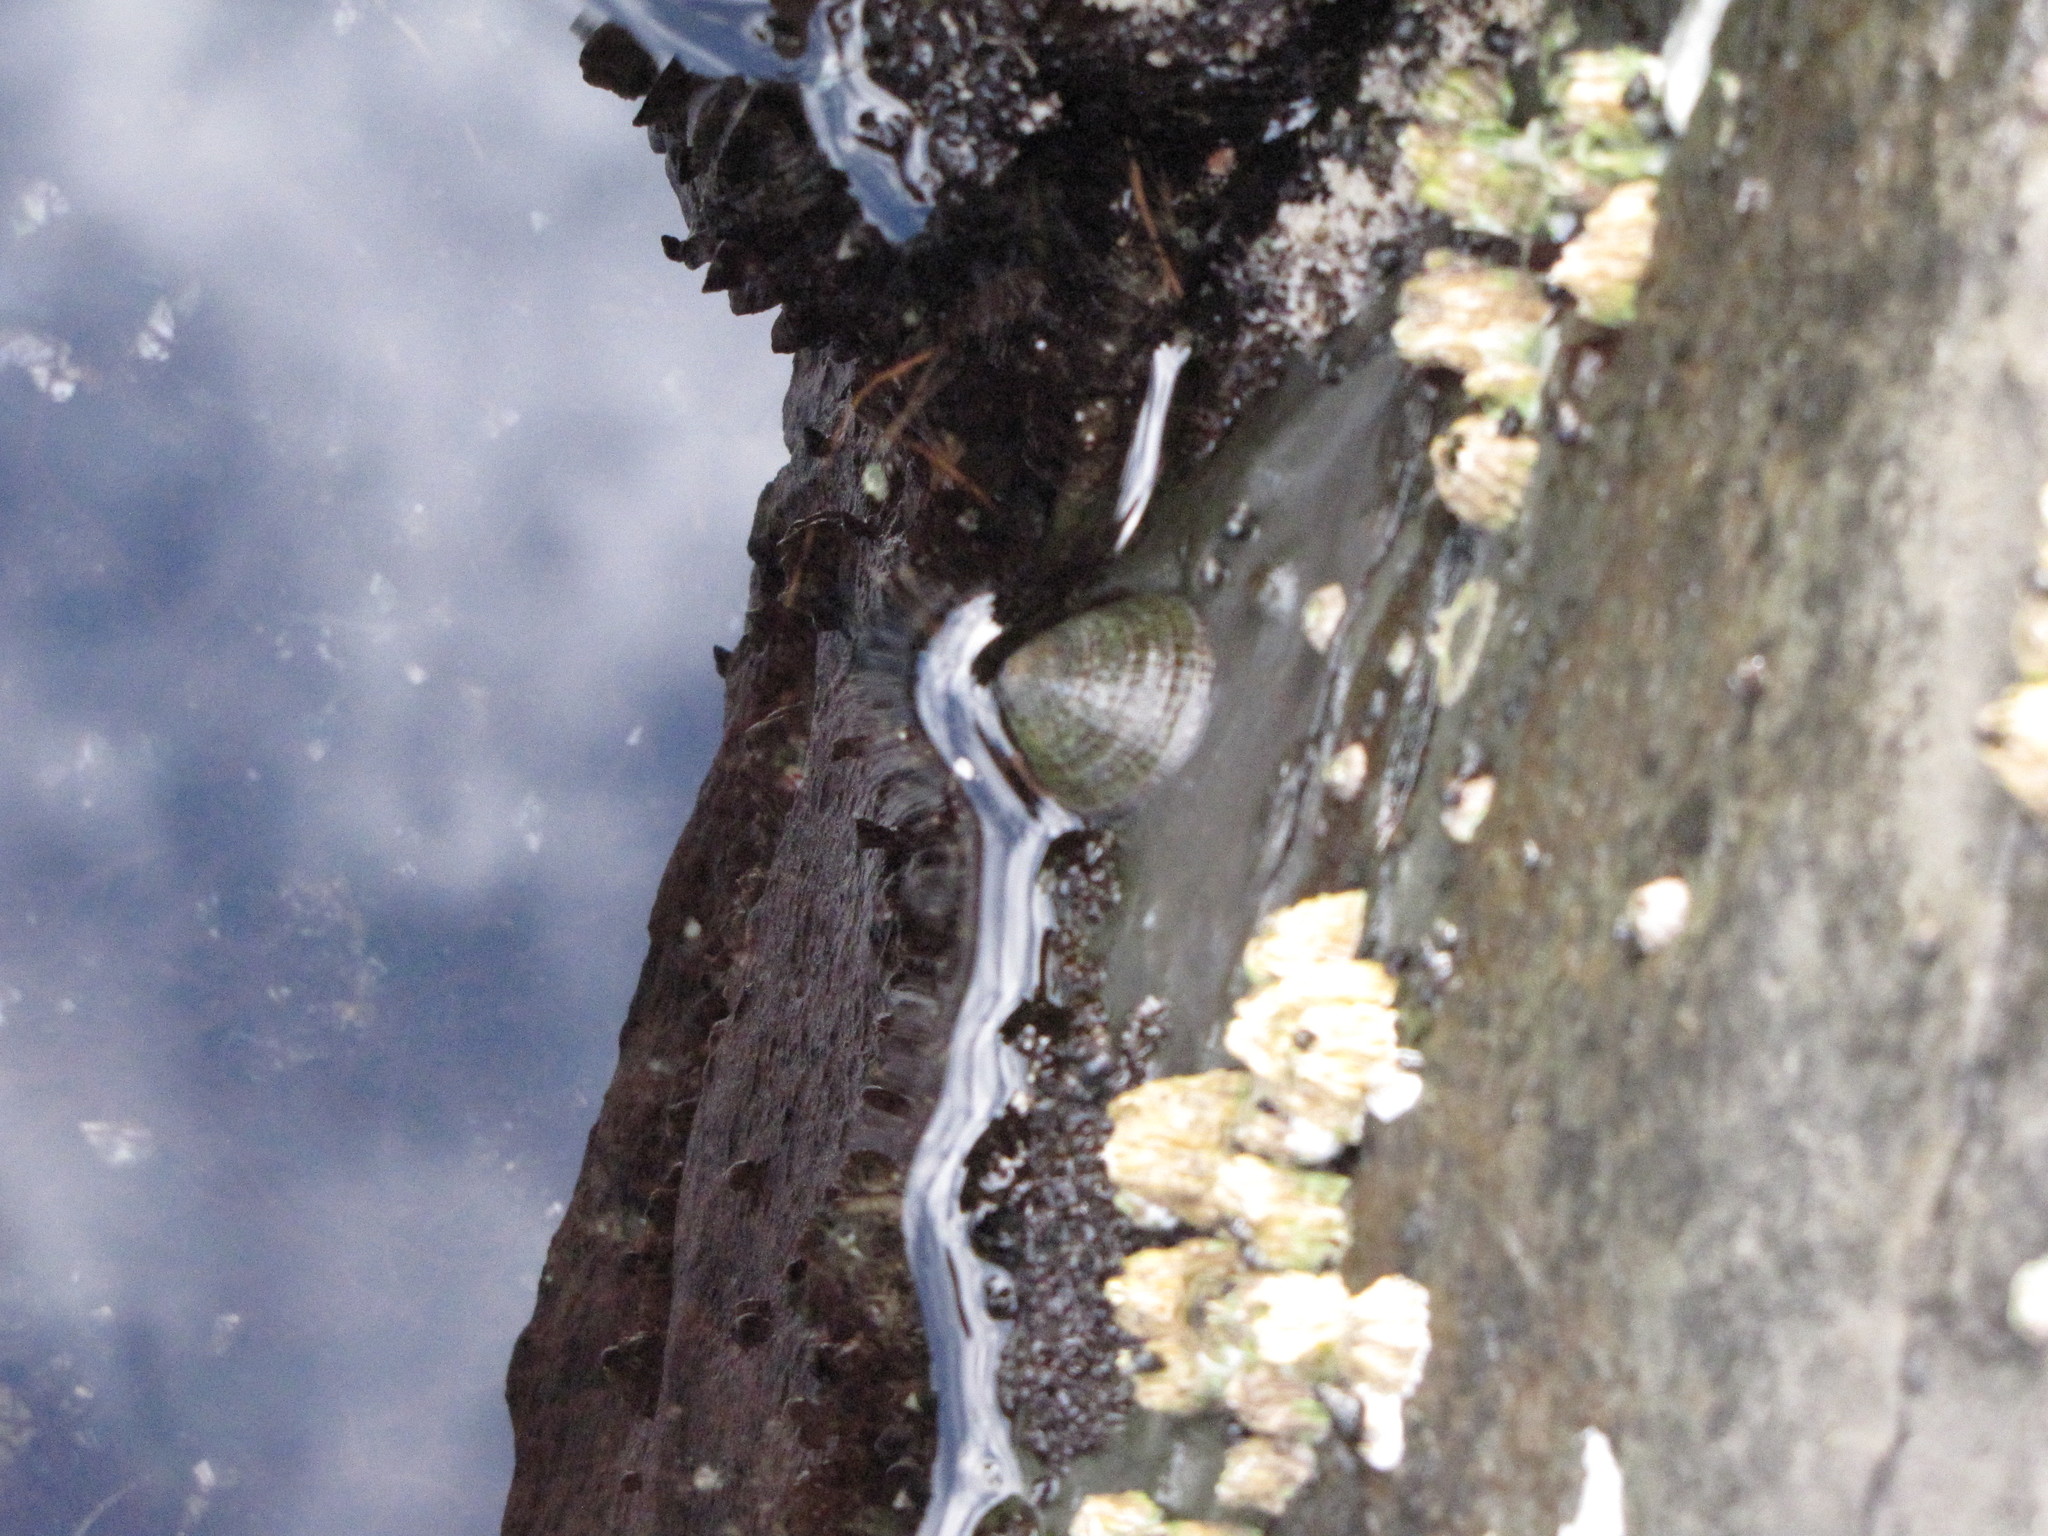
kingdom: Animalia
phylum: Mollusca
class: Gastropoda
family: Lottiidae
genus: Lottia
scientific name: Lottia persona
